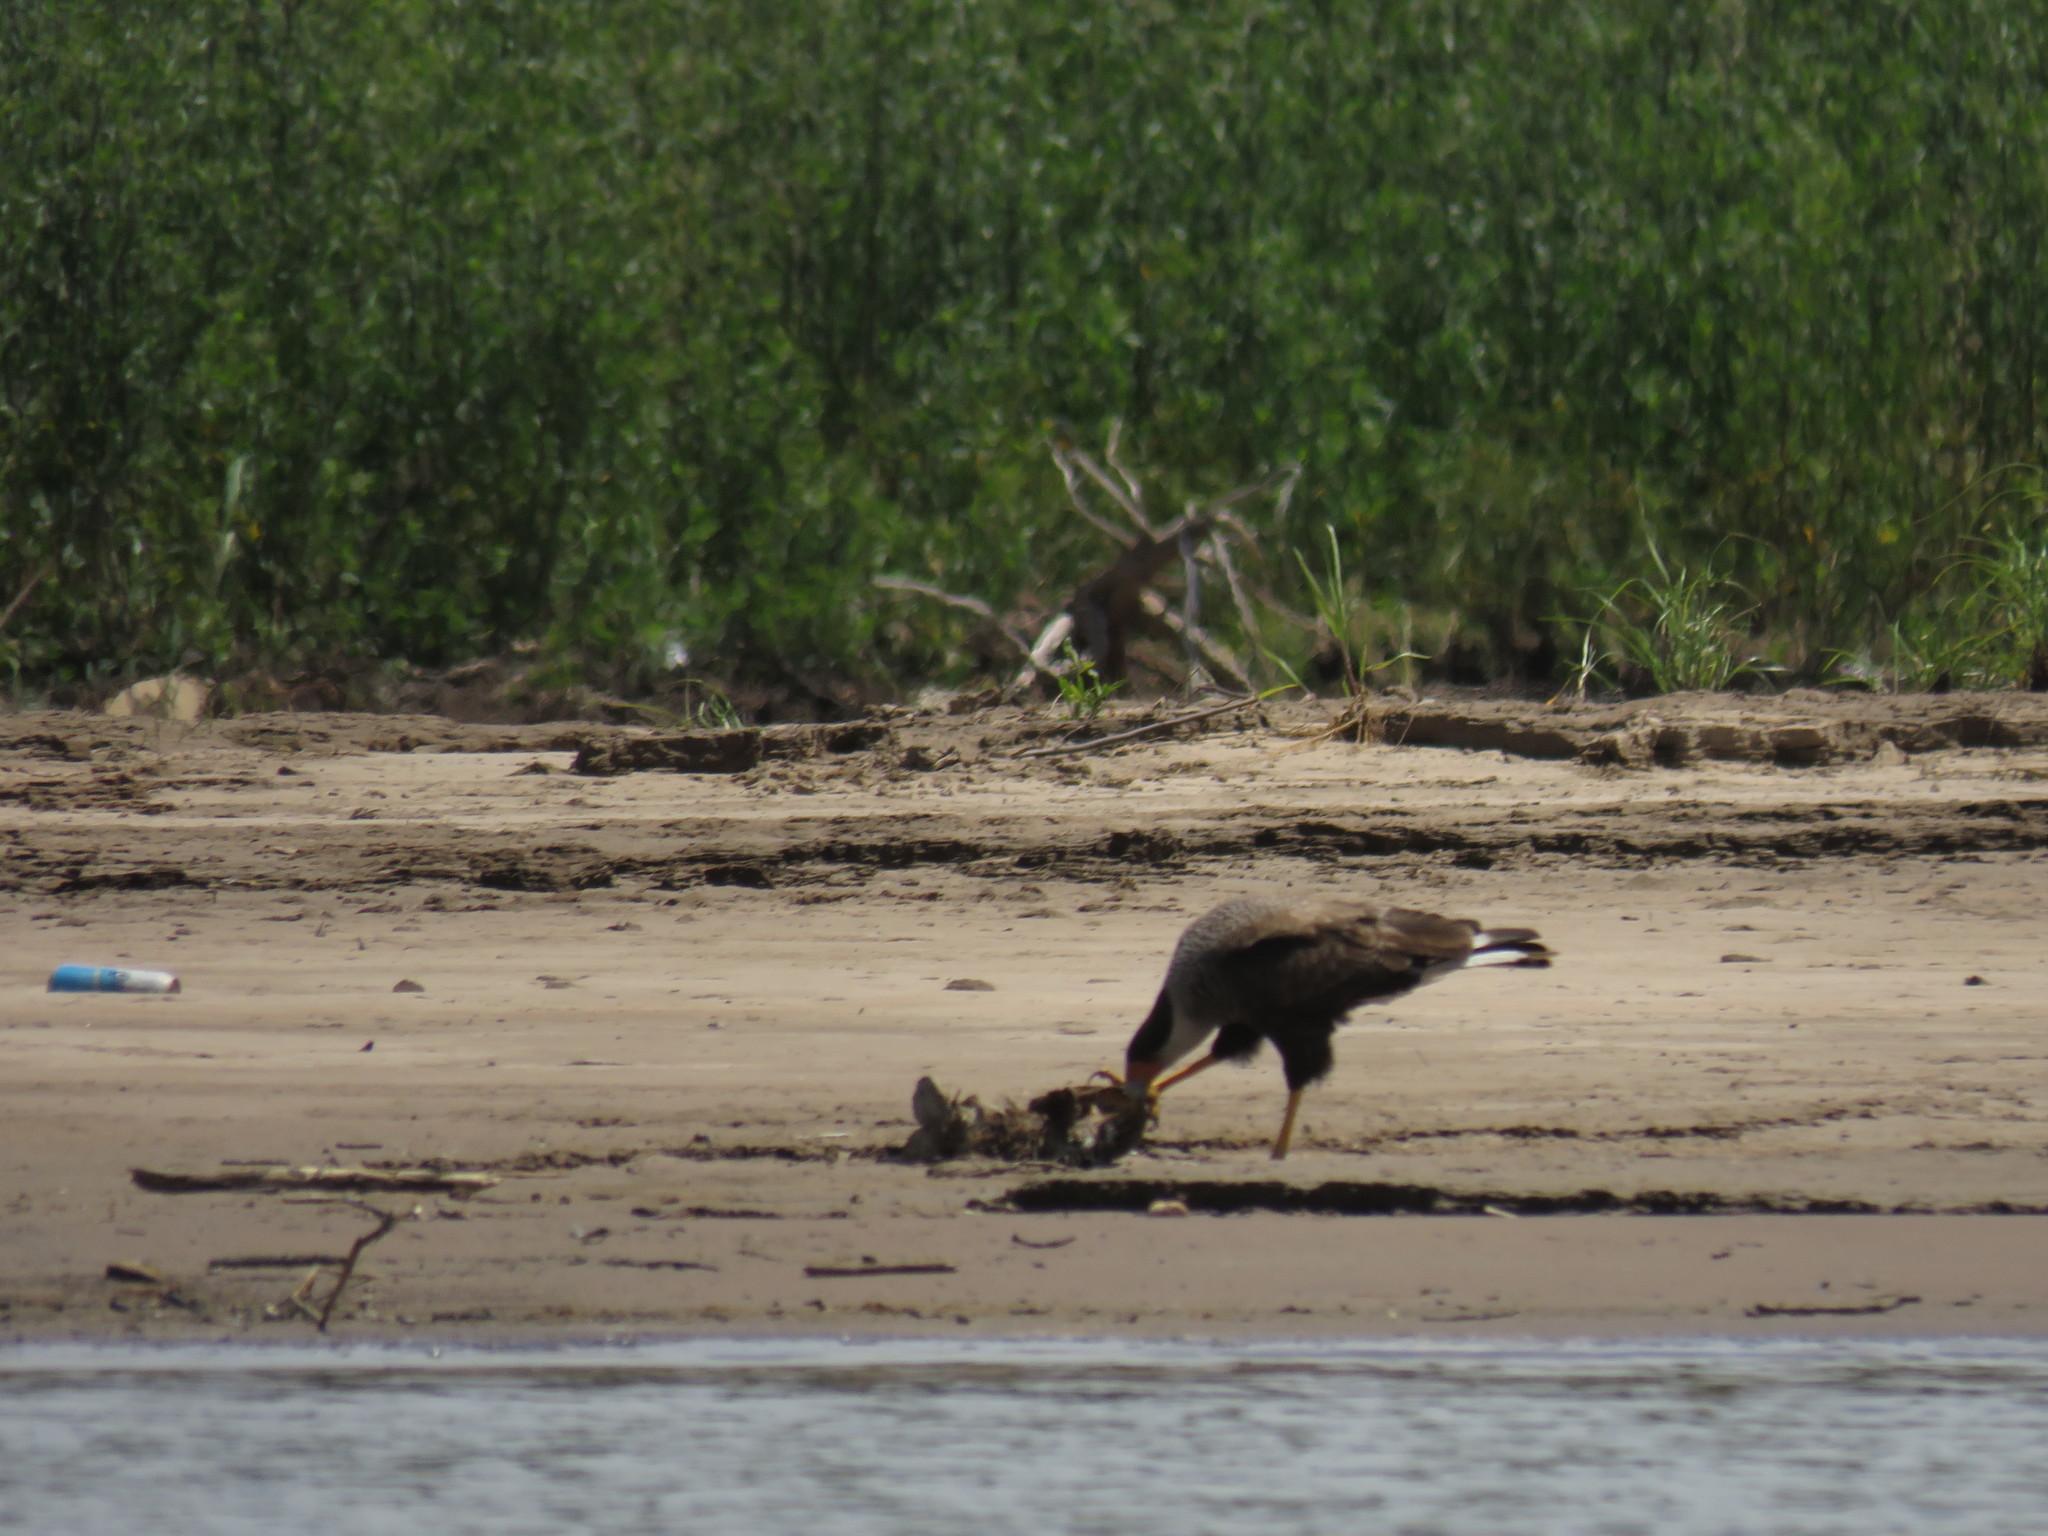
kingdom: Animalia
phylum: Chordata
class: Aves
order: Falconiformes
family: Falconidae
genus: Caracara
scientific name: Caracara plancus
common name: Southern caracara
